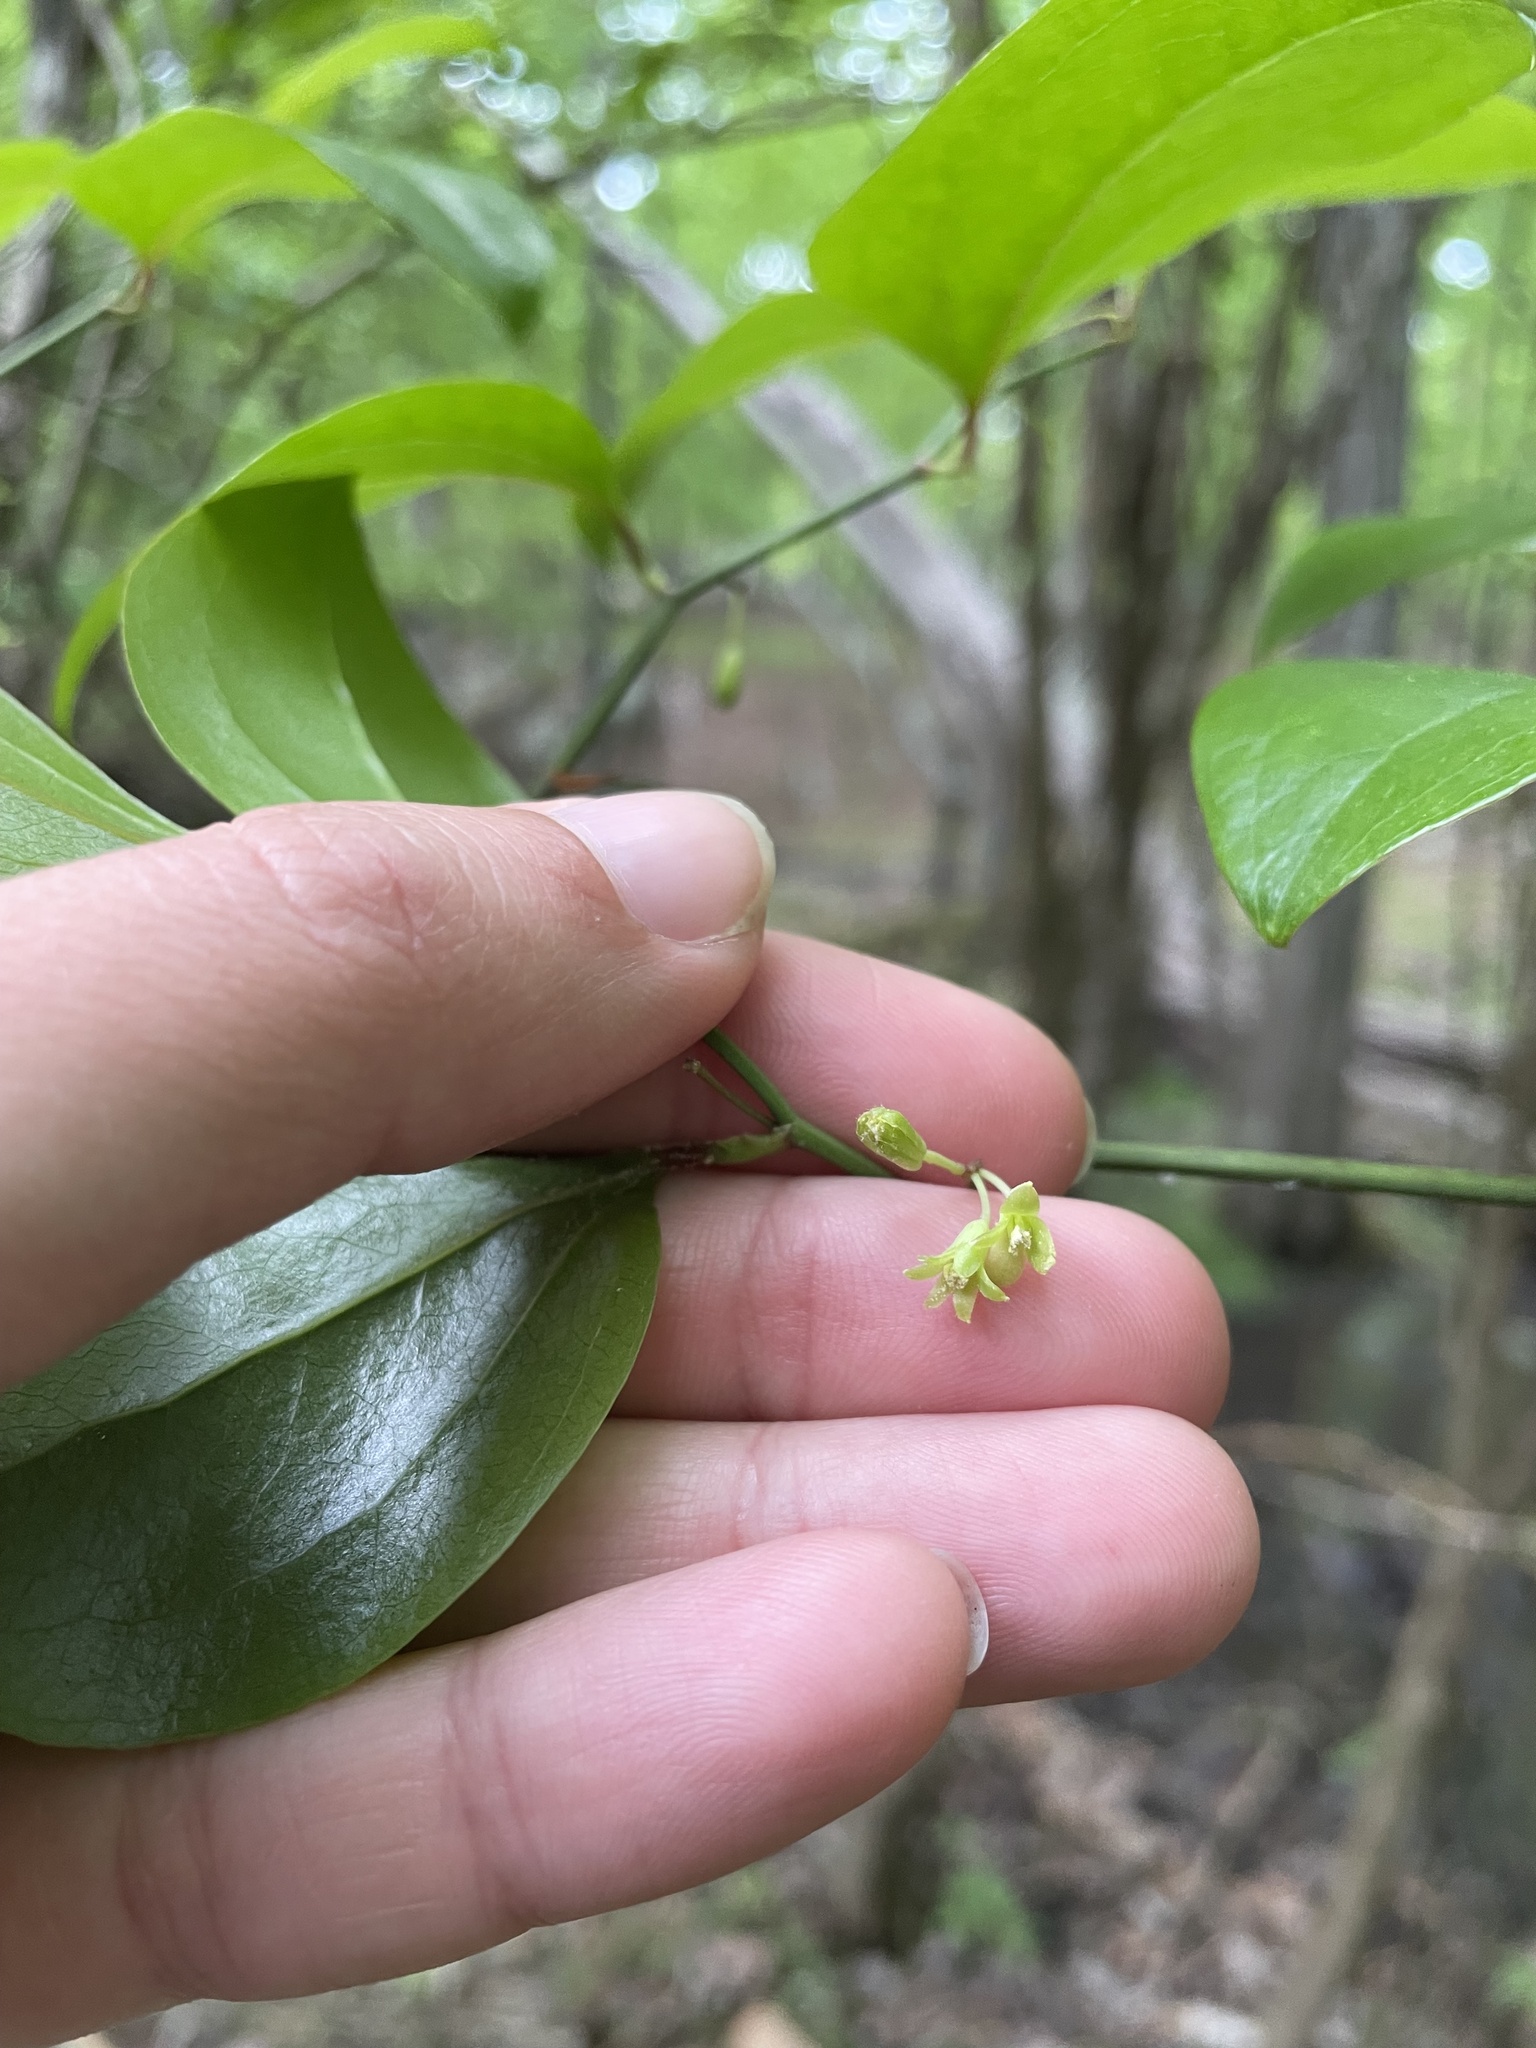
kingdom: Plantae
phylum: Tracheophyta
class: Liliopsida
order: Liliales
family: Smilacaceae
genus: Smilax
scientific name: Smilax rotundifolia
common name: Bullbriar
